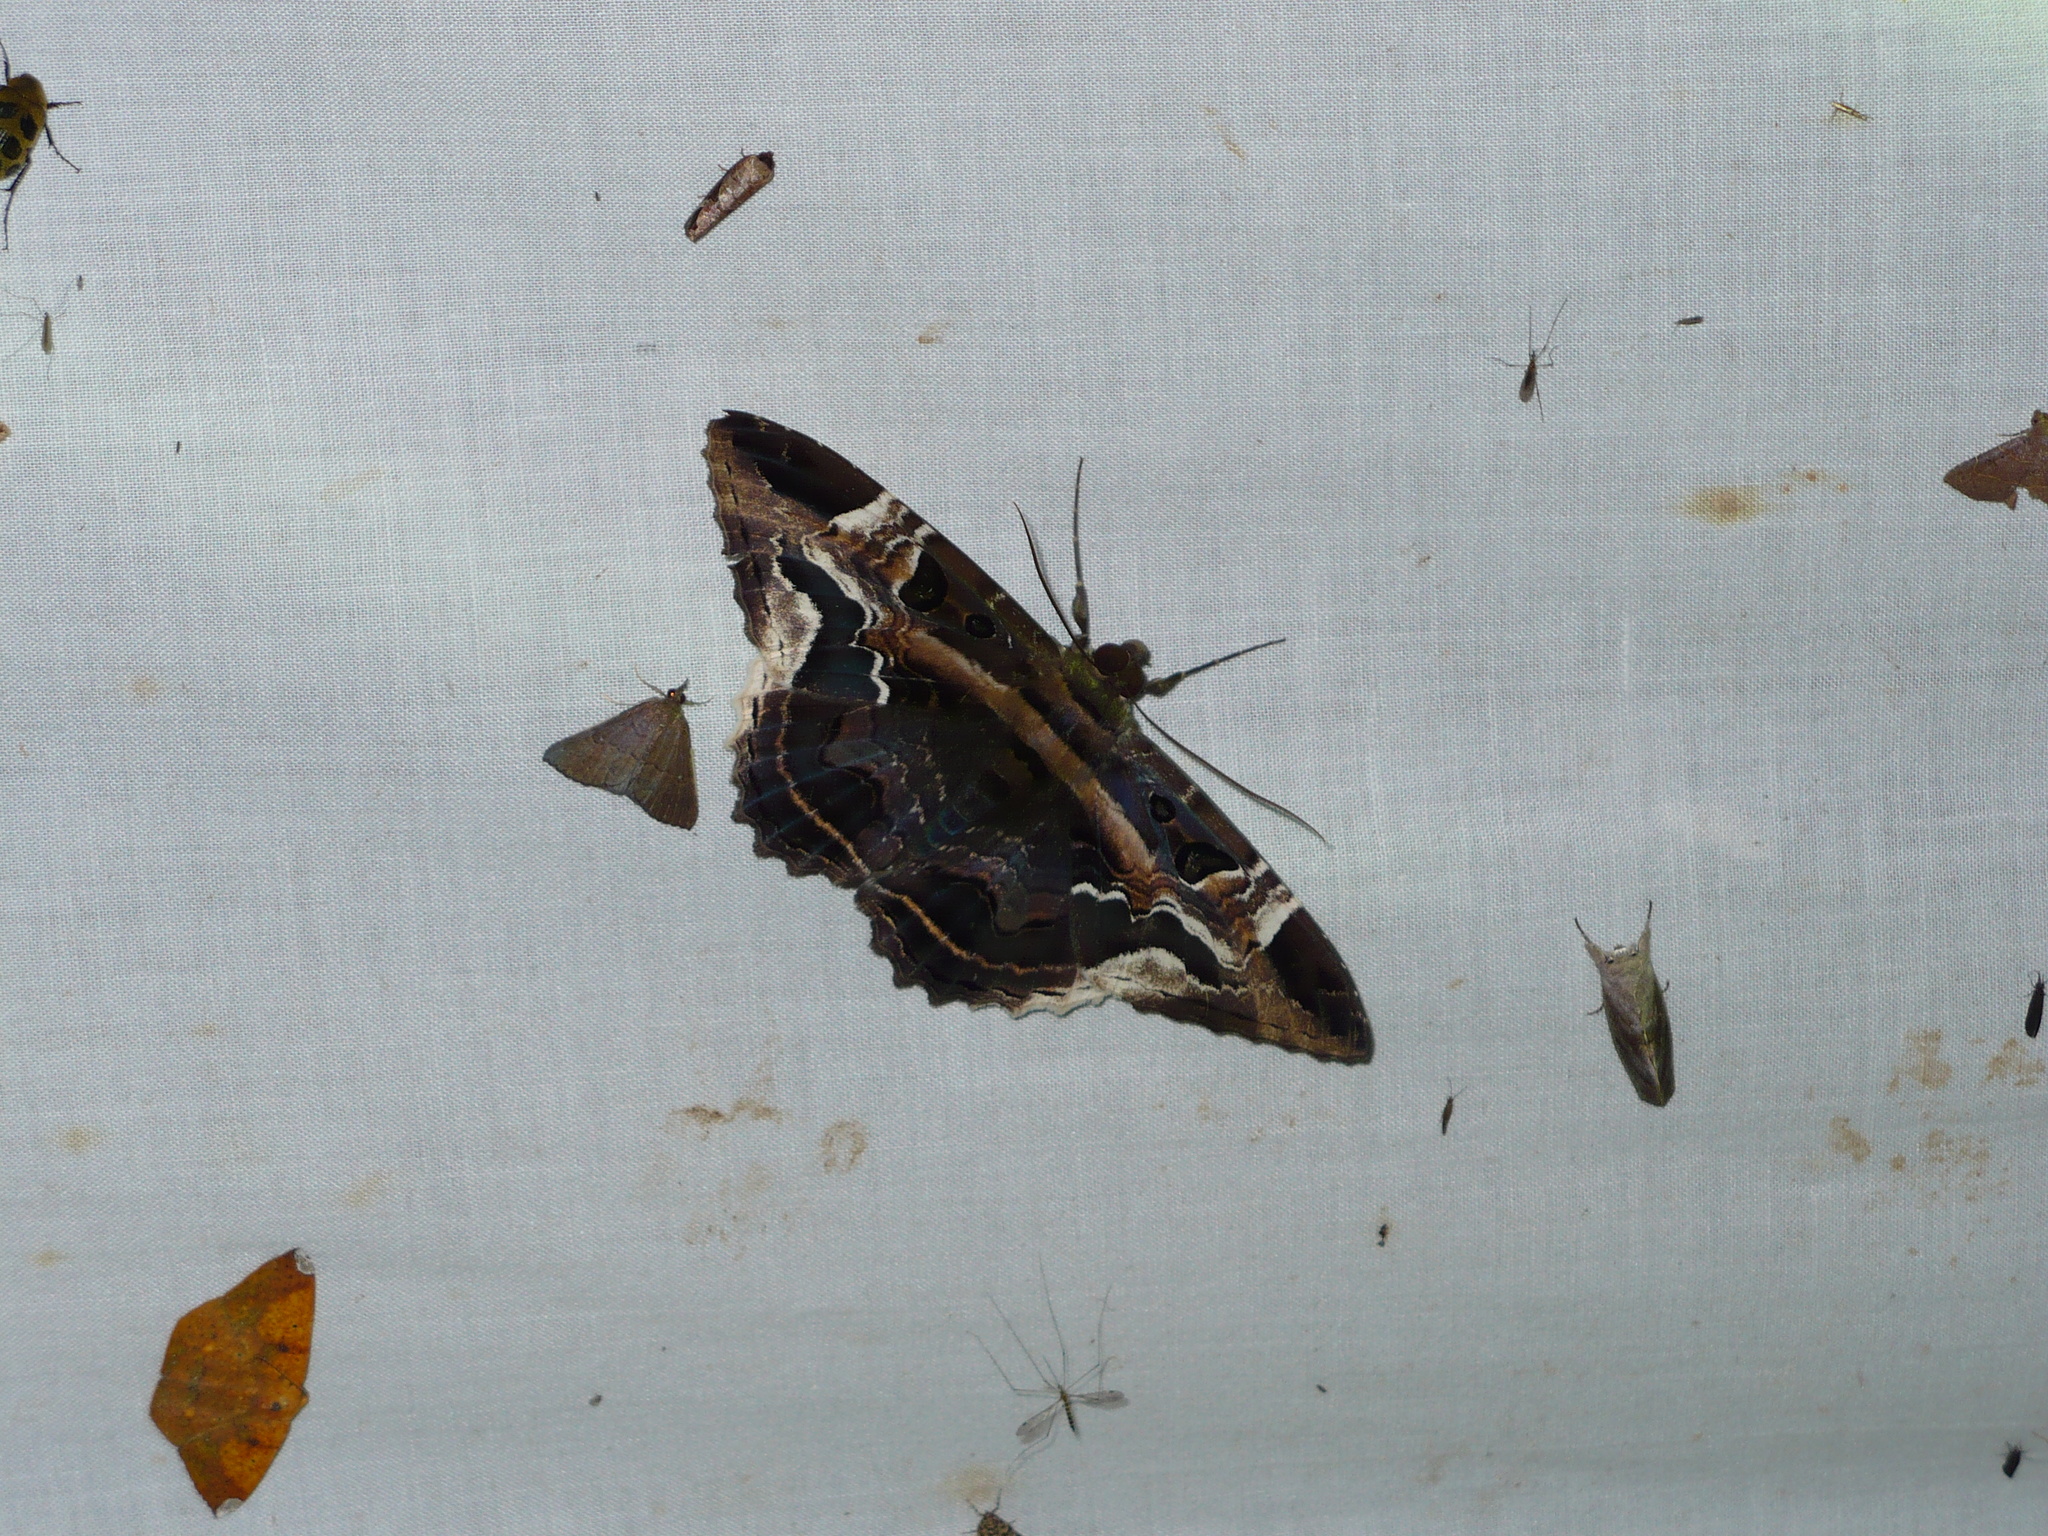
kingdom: Animalia
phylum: Arthropoda
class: Insecta
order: Lepidoptera
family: Erebidae
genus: Feigeria
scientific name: Feigeria herilia
